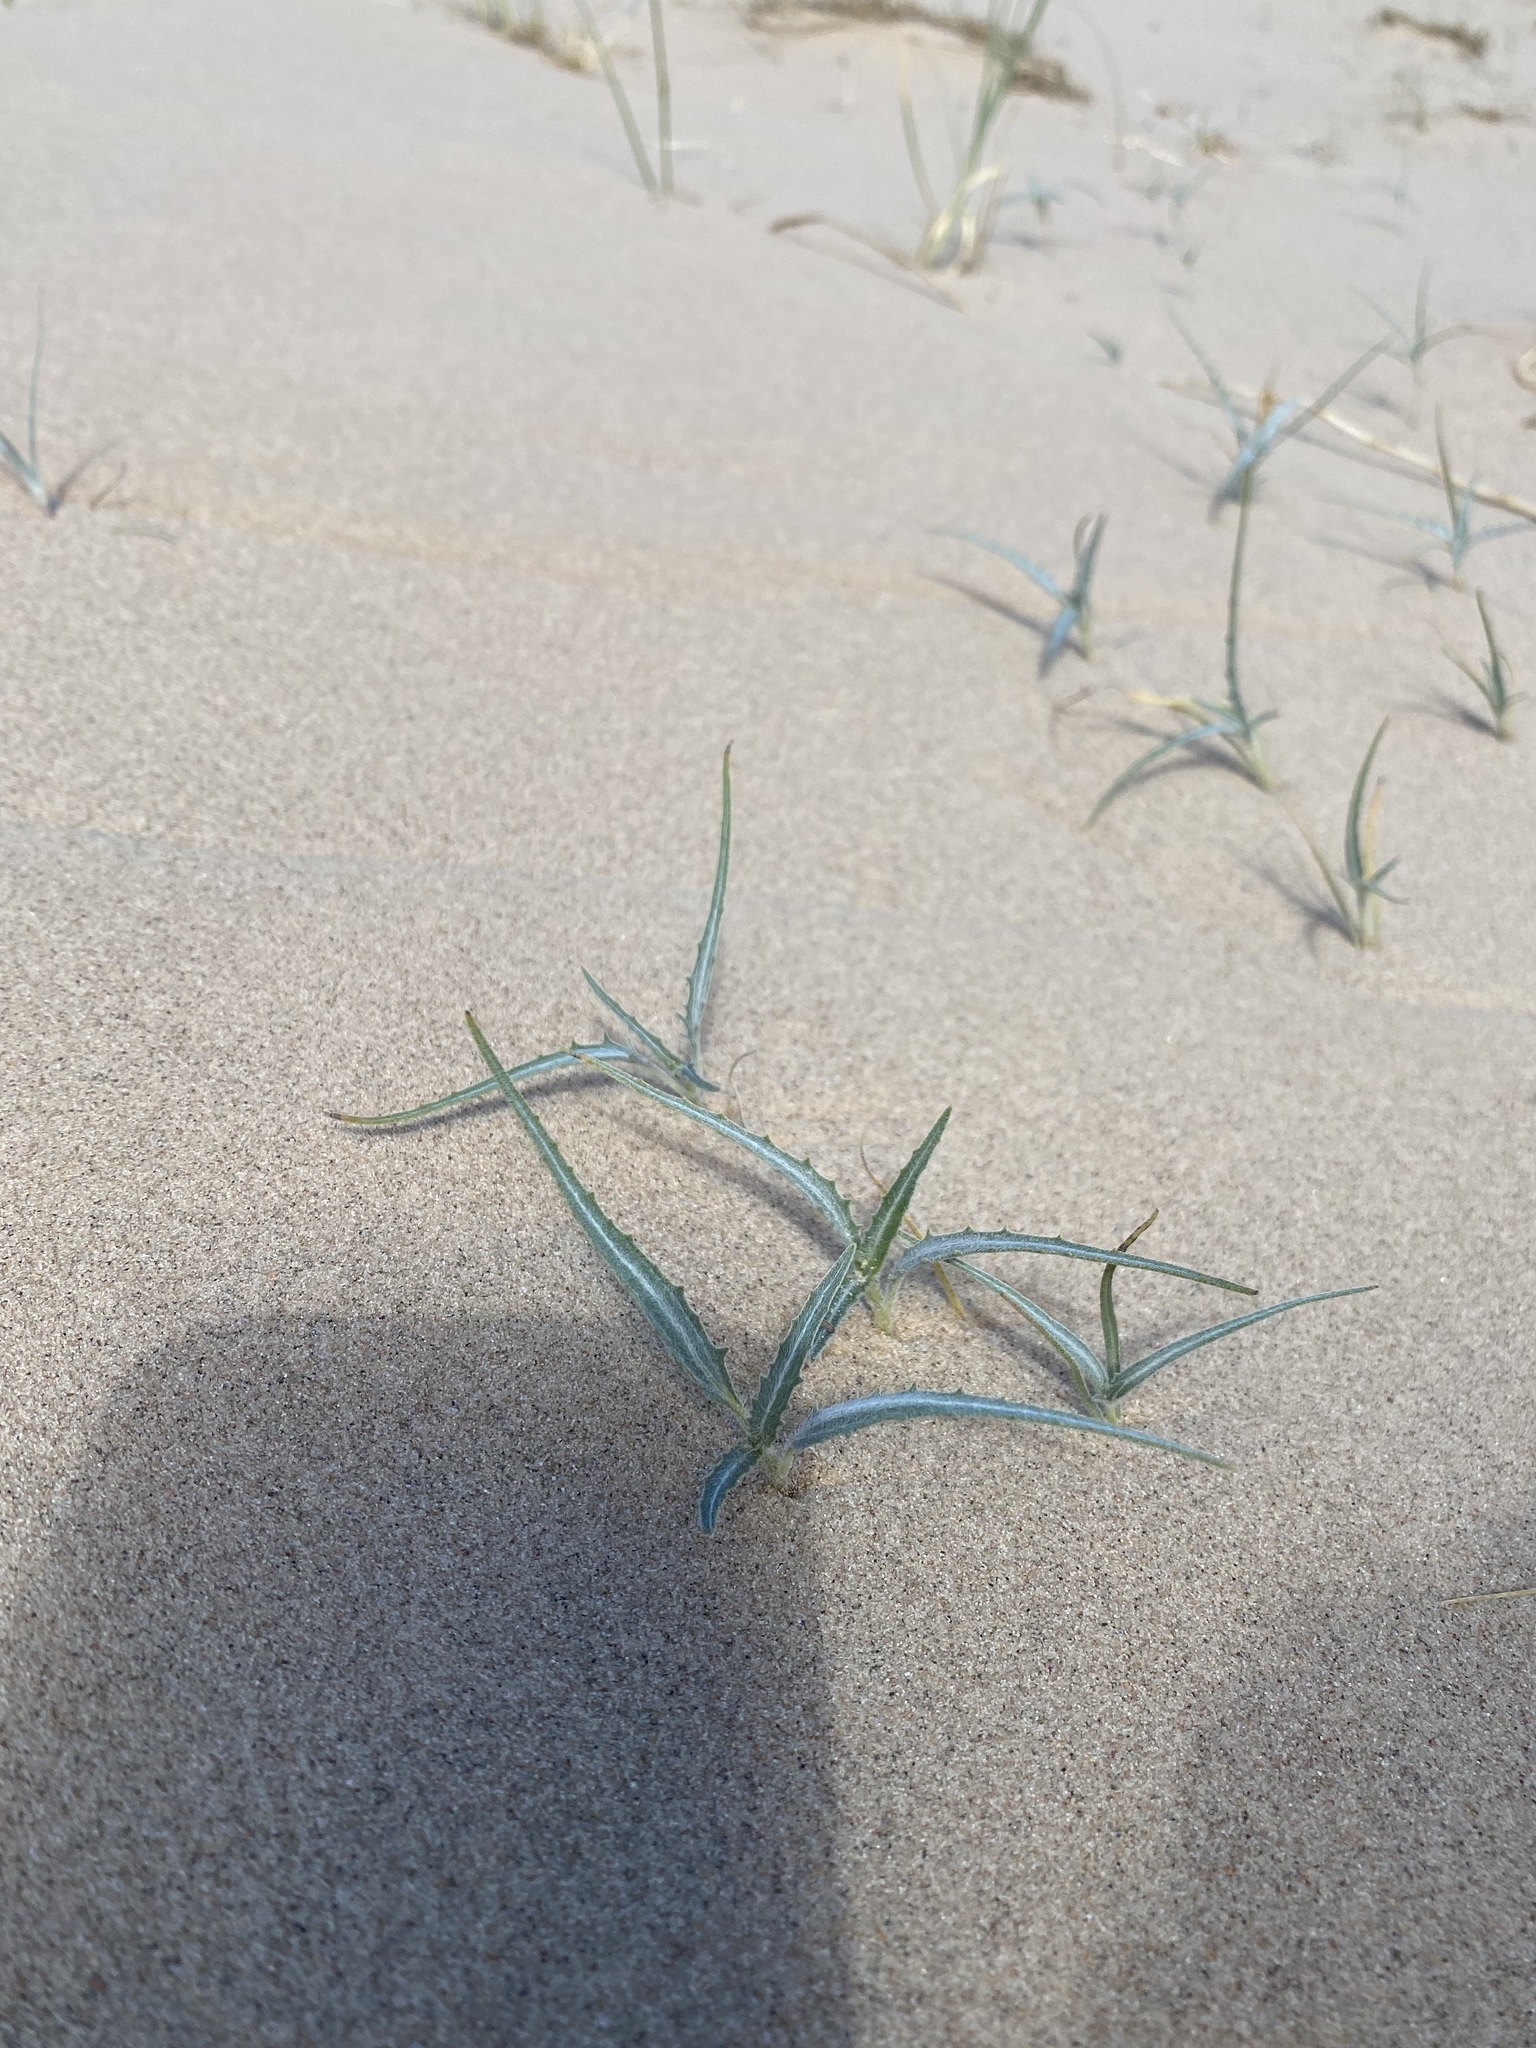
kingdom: Plantae
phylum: Tracheophyta
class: Magnoliopsida
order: Asterales
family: Asteraceae
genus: Dicoria
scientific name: Dicoria canescens
